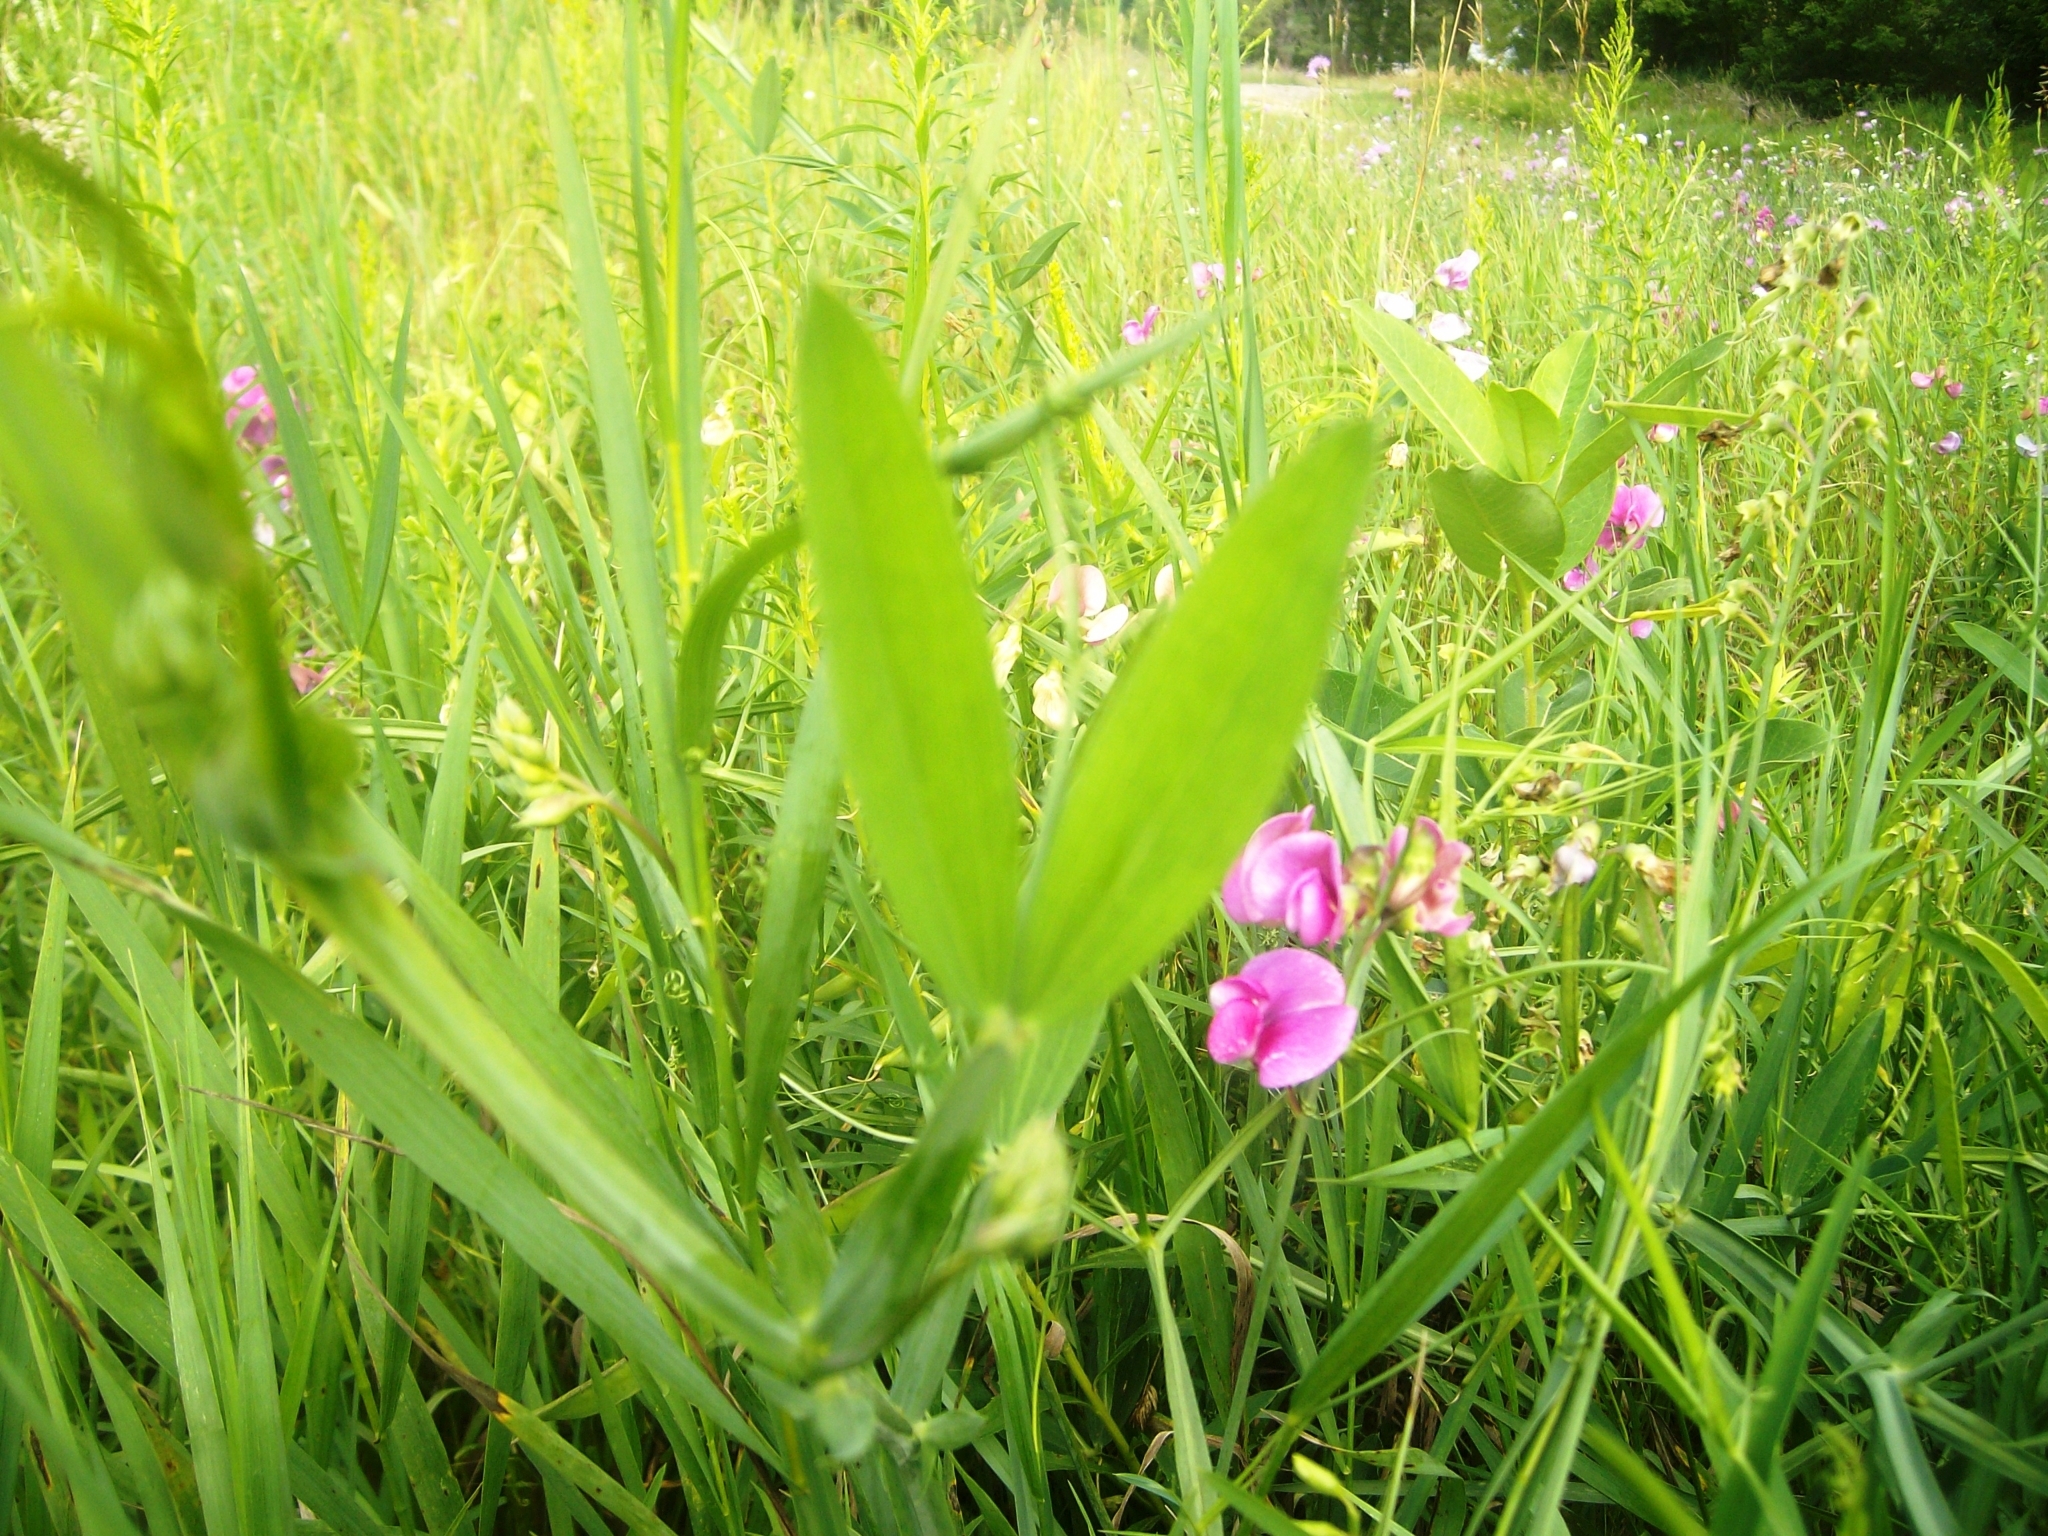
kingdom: Plantae
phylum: Tracheophyta
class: Magnoliopsida
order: Fabales
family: Fabaceae
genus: Lathyrus
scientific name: Lathyrus latifolius
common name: Perennial pea
